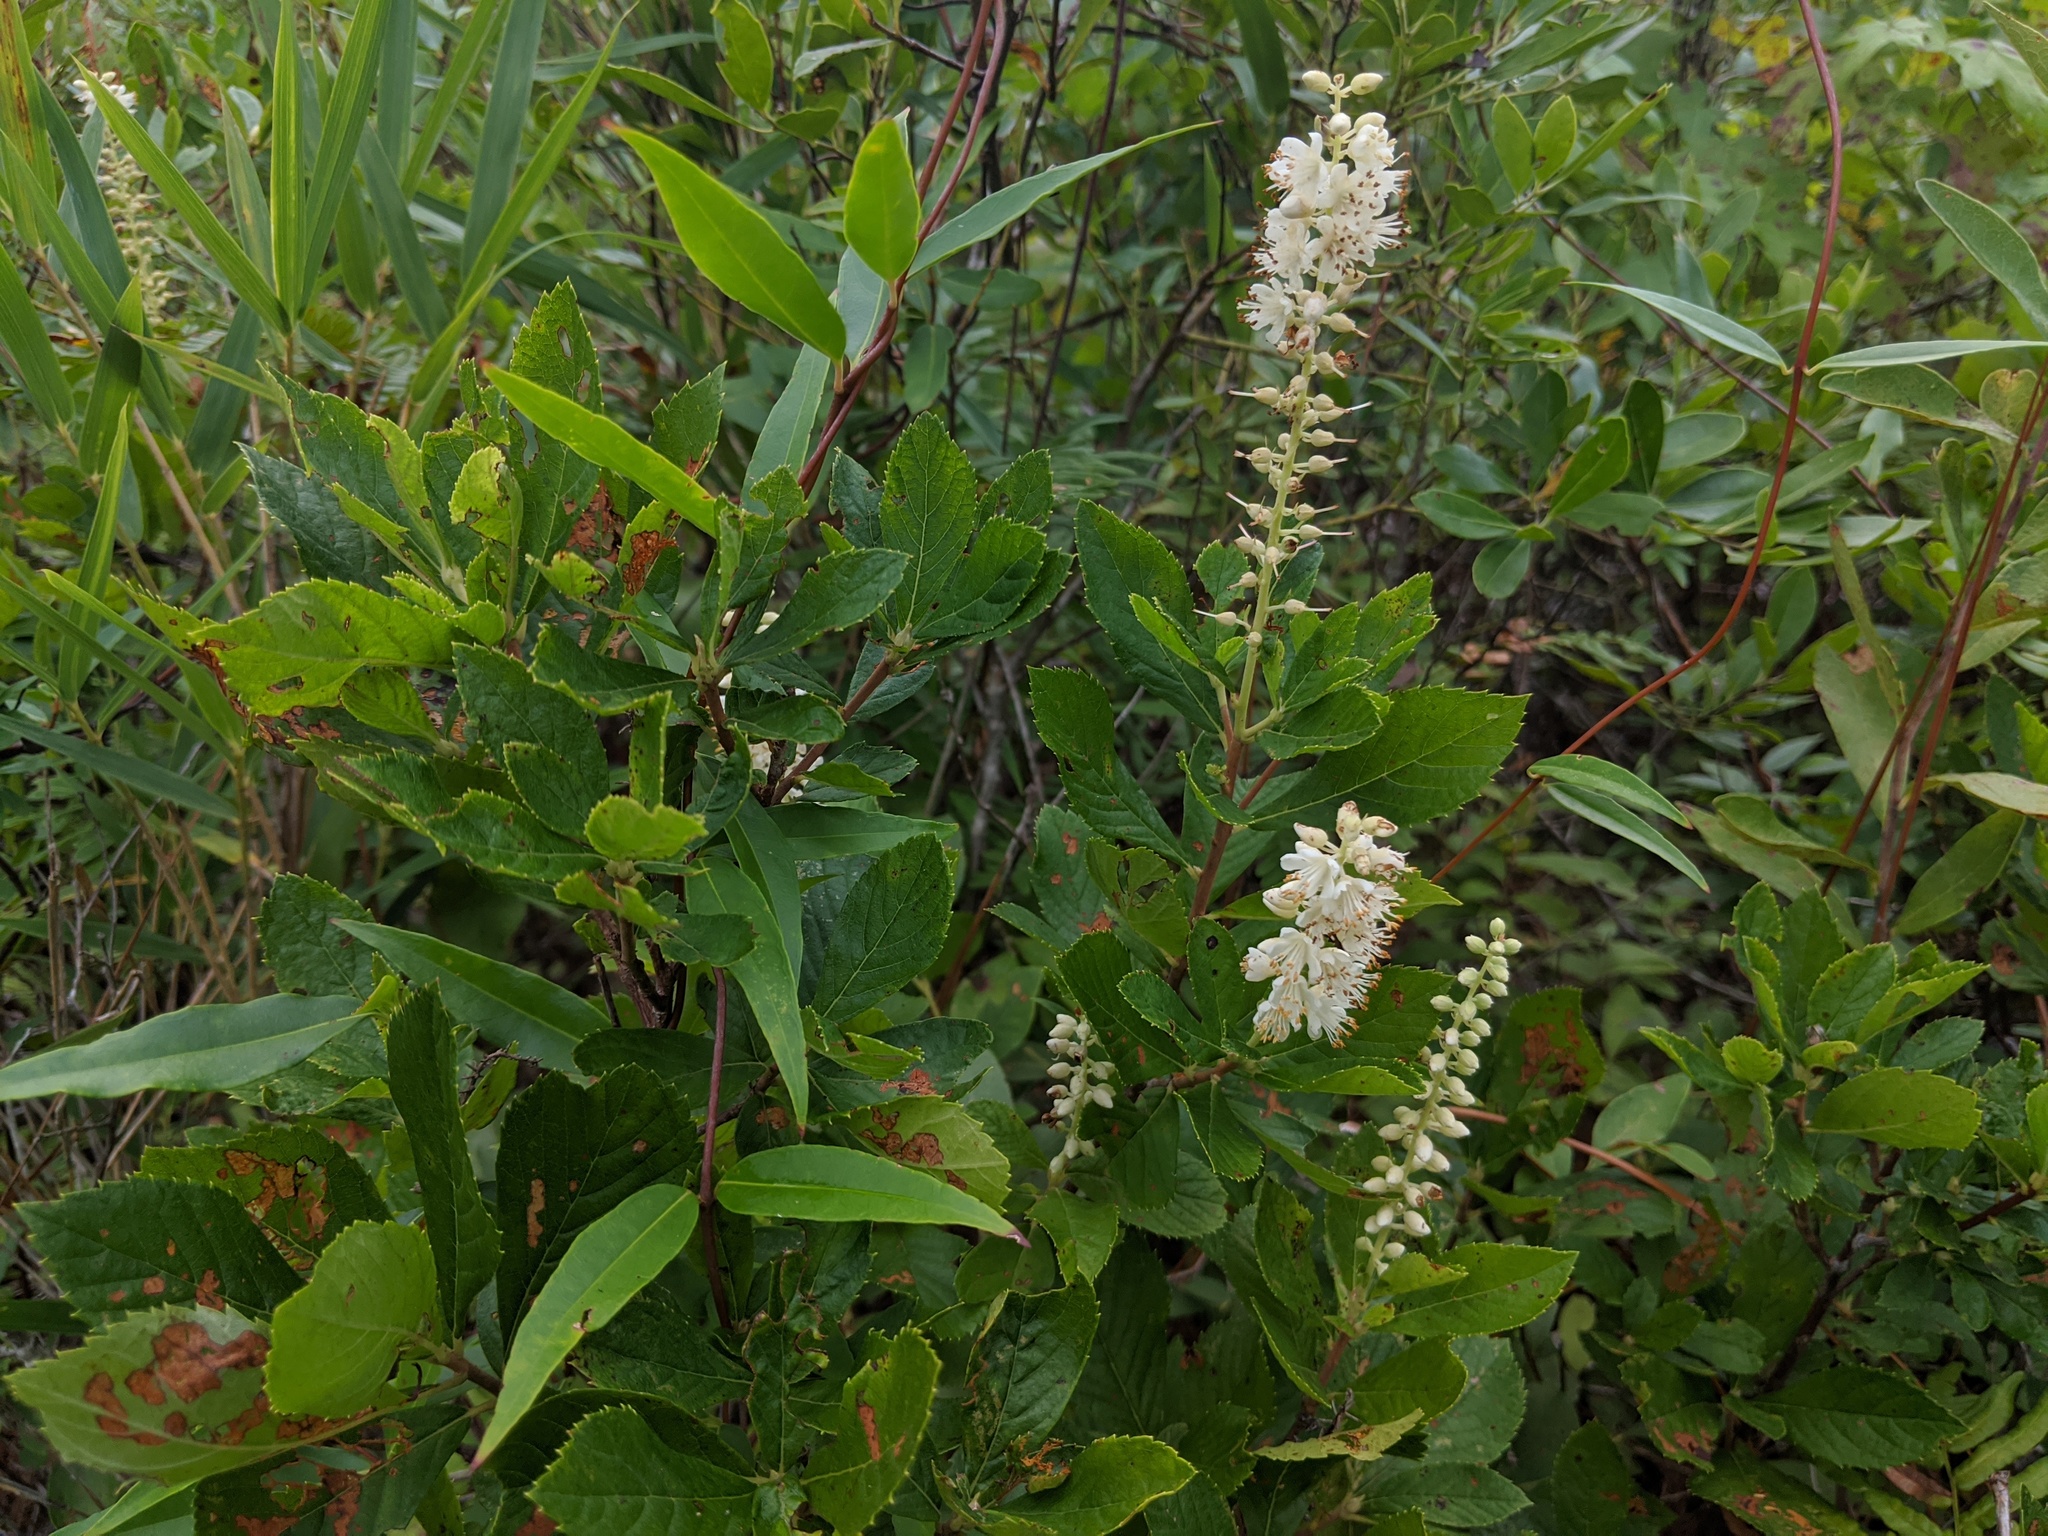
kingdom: Plantae
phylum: Tracheophyta
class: Magnoliopsida
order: Ericales
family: Clethraceae
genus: Clethra
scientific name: Clethra alnifolia
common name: Sweet pepperbush
